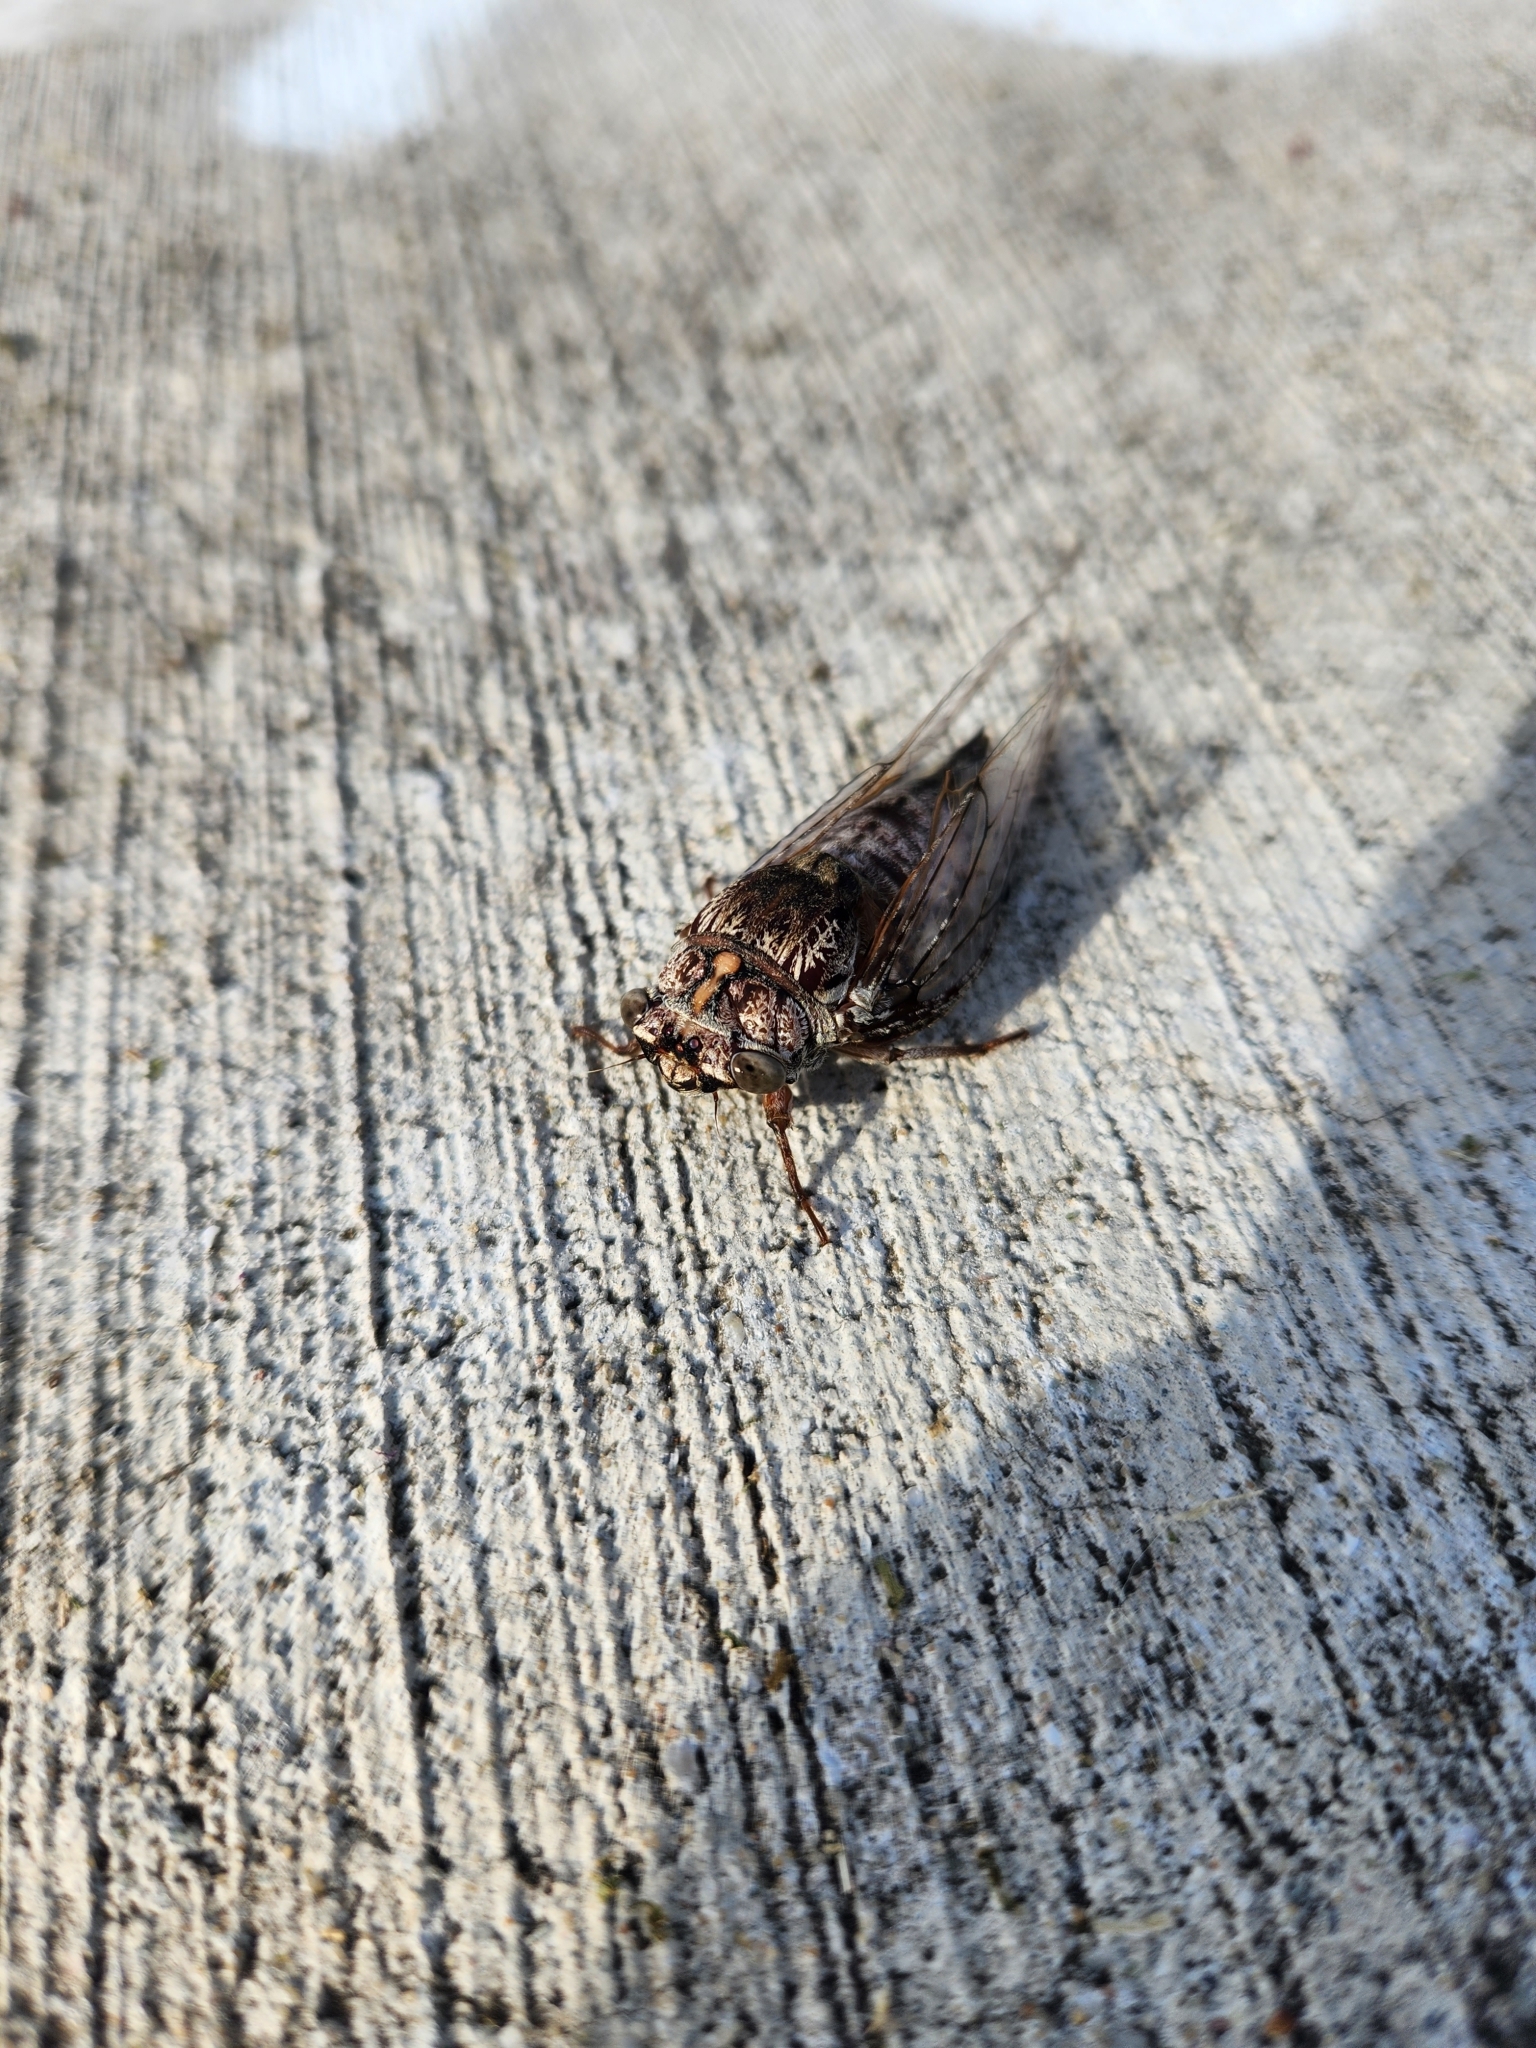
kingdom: Animalia
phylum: Arthropoda
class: Insecta
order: Hemiptera
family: Cicadidae
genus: Aleeta
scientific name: Aleeta curvicosta
